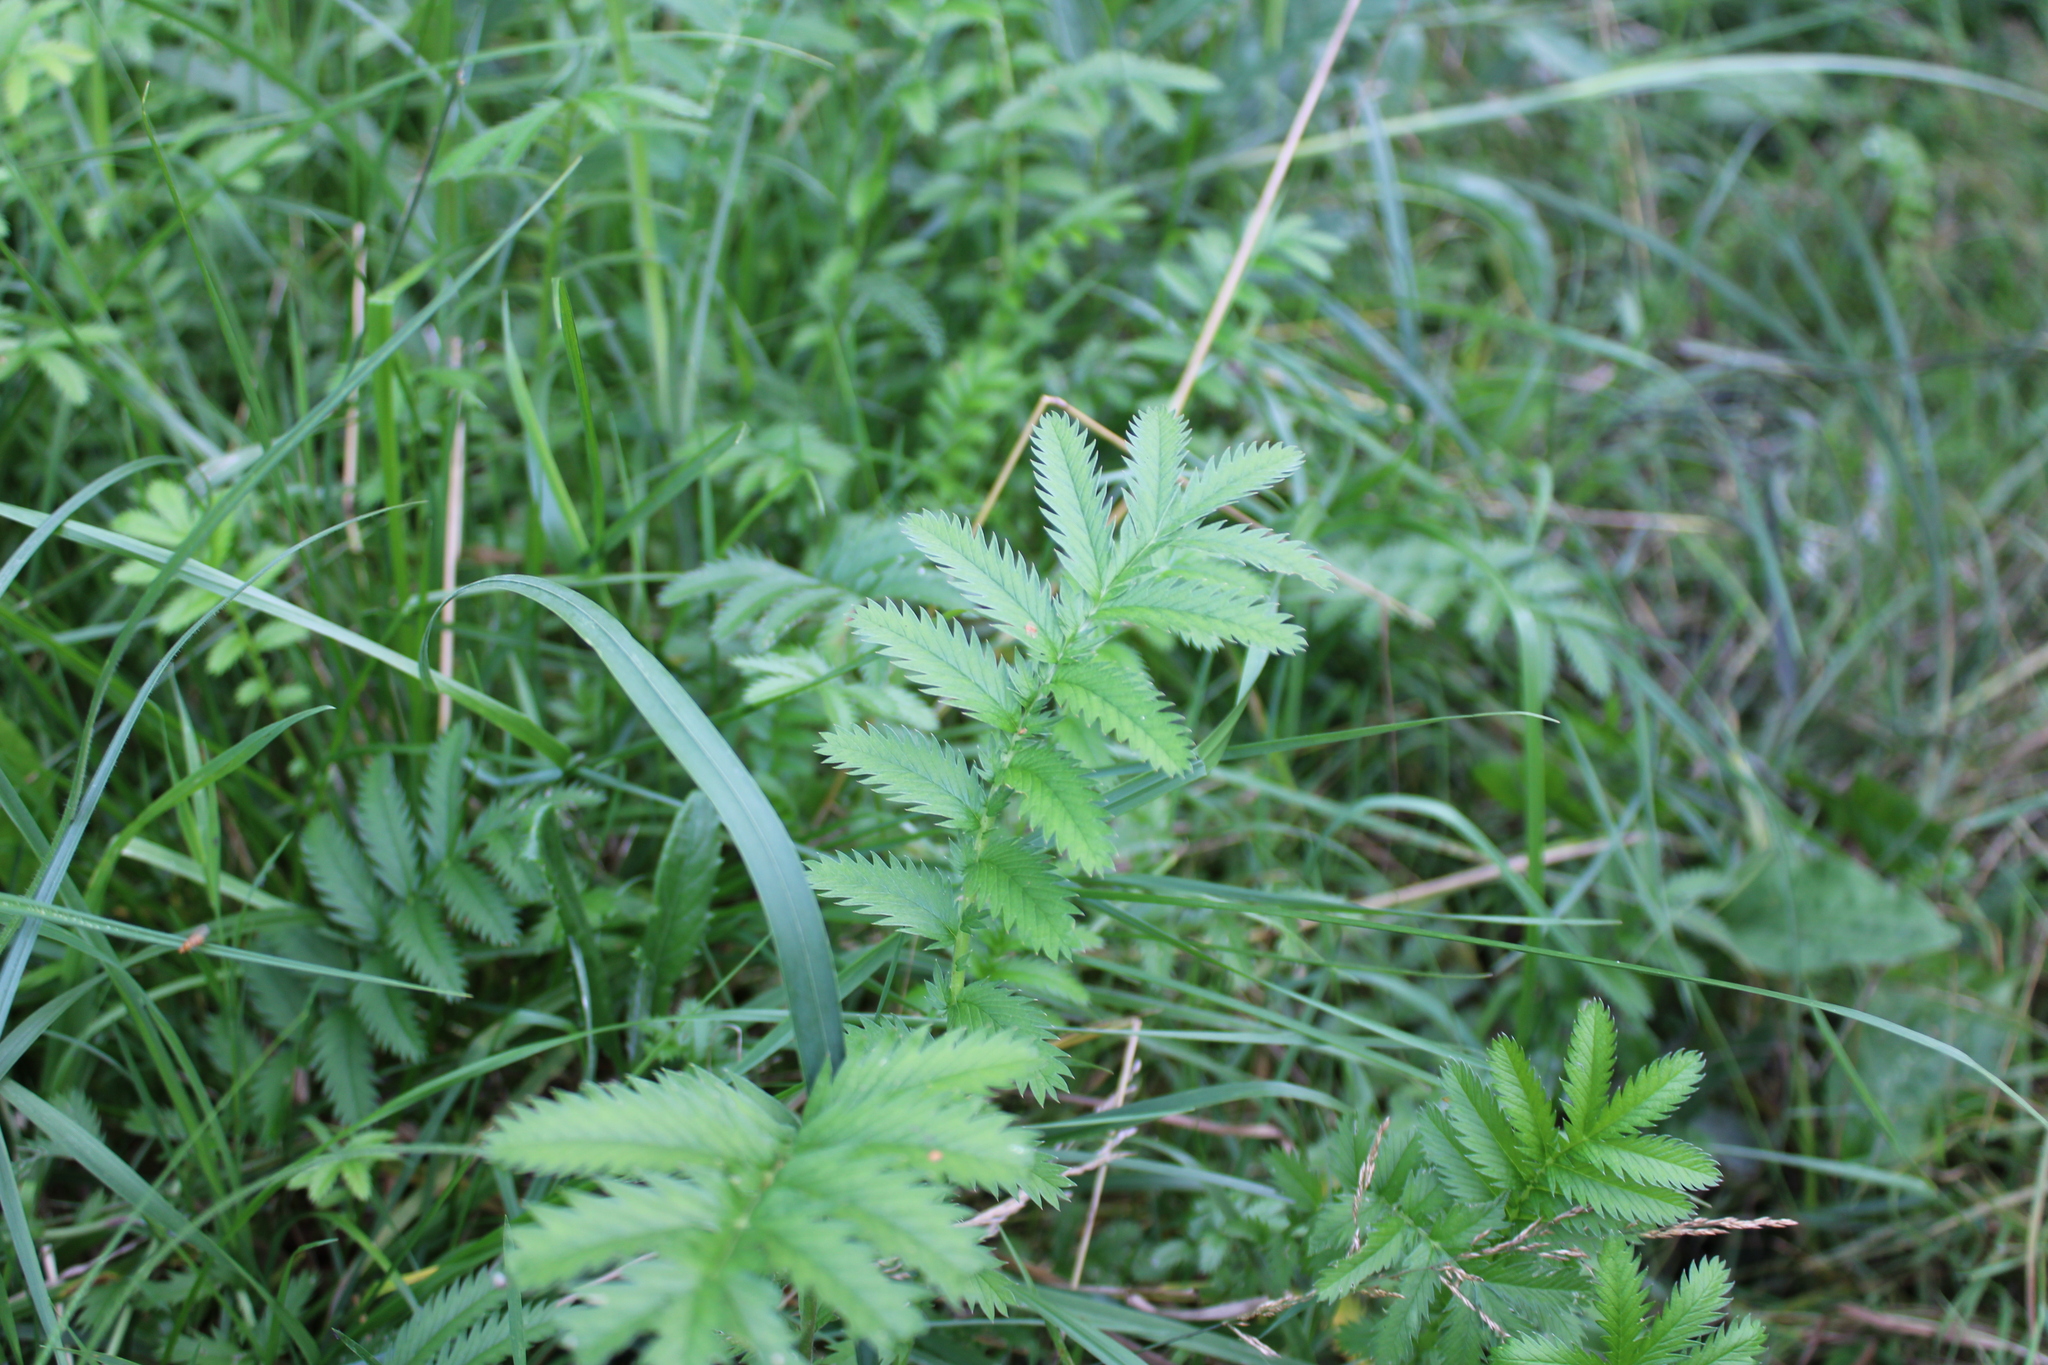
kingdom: Plantae
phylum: Tracheophyta
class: Magnoliopsida
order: Rosales
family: Rosaceae
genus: Argentina
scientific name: Argentina anserina
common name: Common silverweed
